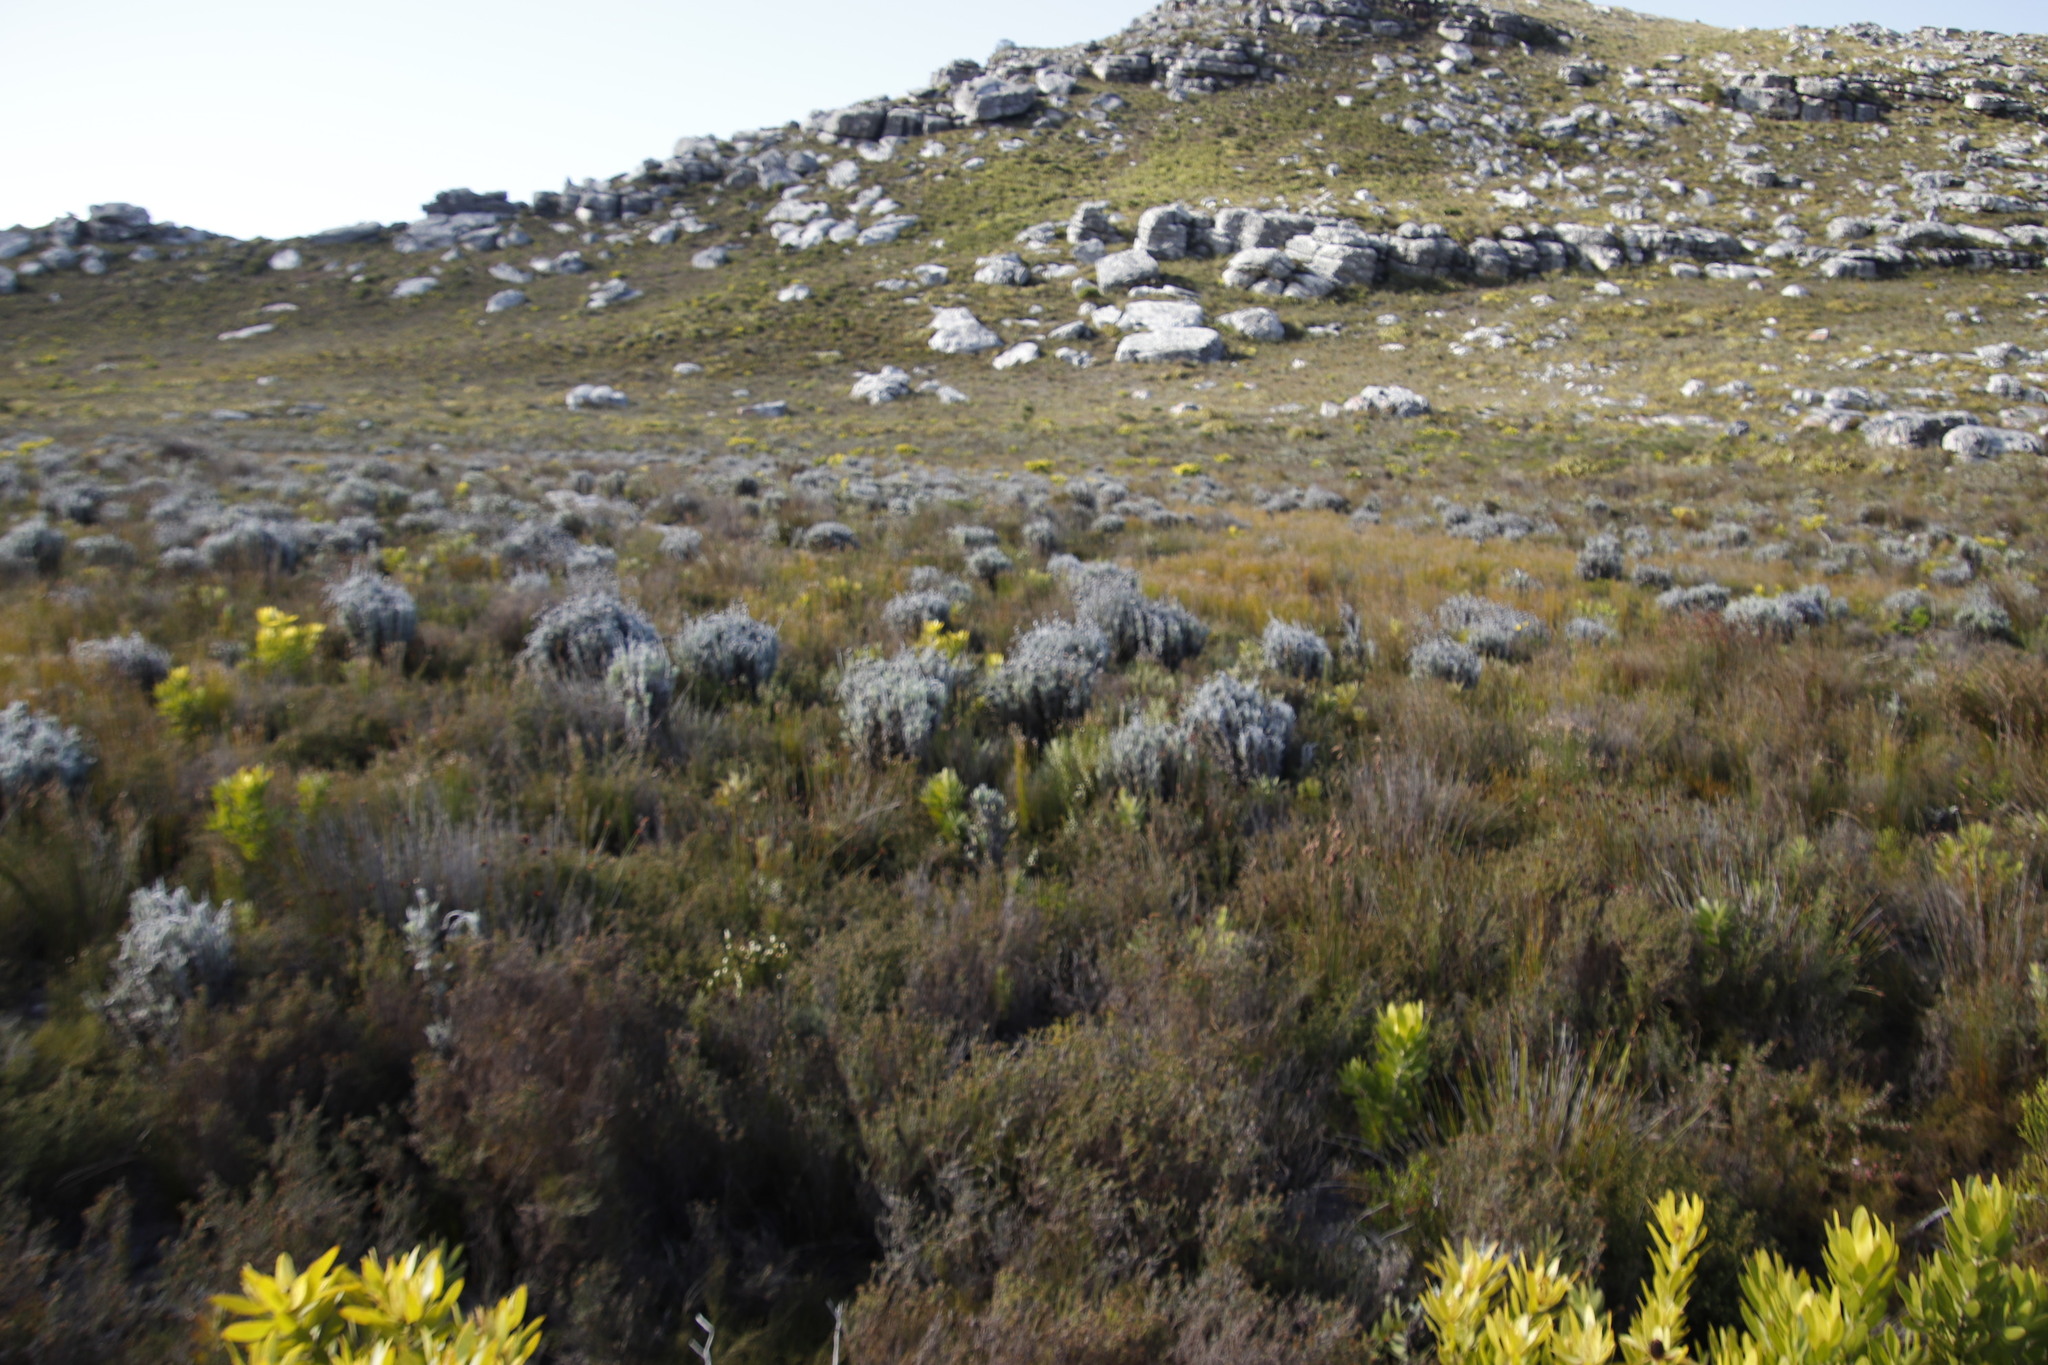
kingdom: Plantae
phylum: Tracheophyta
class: Magnoliopsida
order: Asterales
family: Asteraceae
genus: Syncarpha
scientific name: Syncarpha vestita
